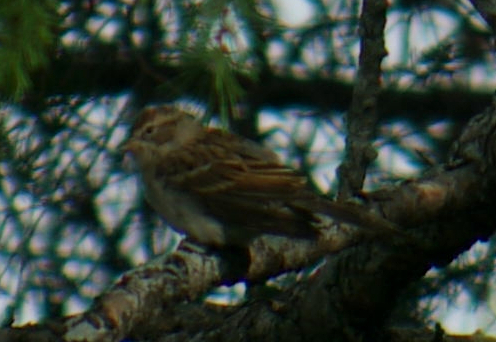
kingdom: Animalia
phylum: Chordata
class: Aves
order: Passeriformes
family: Passerellidae
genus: Spizella
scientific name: Spizella passerina
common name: Chipping sparrow
